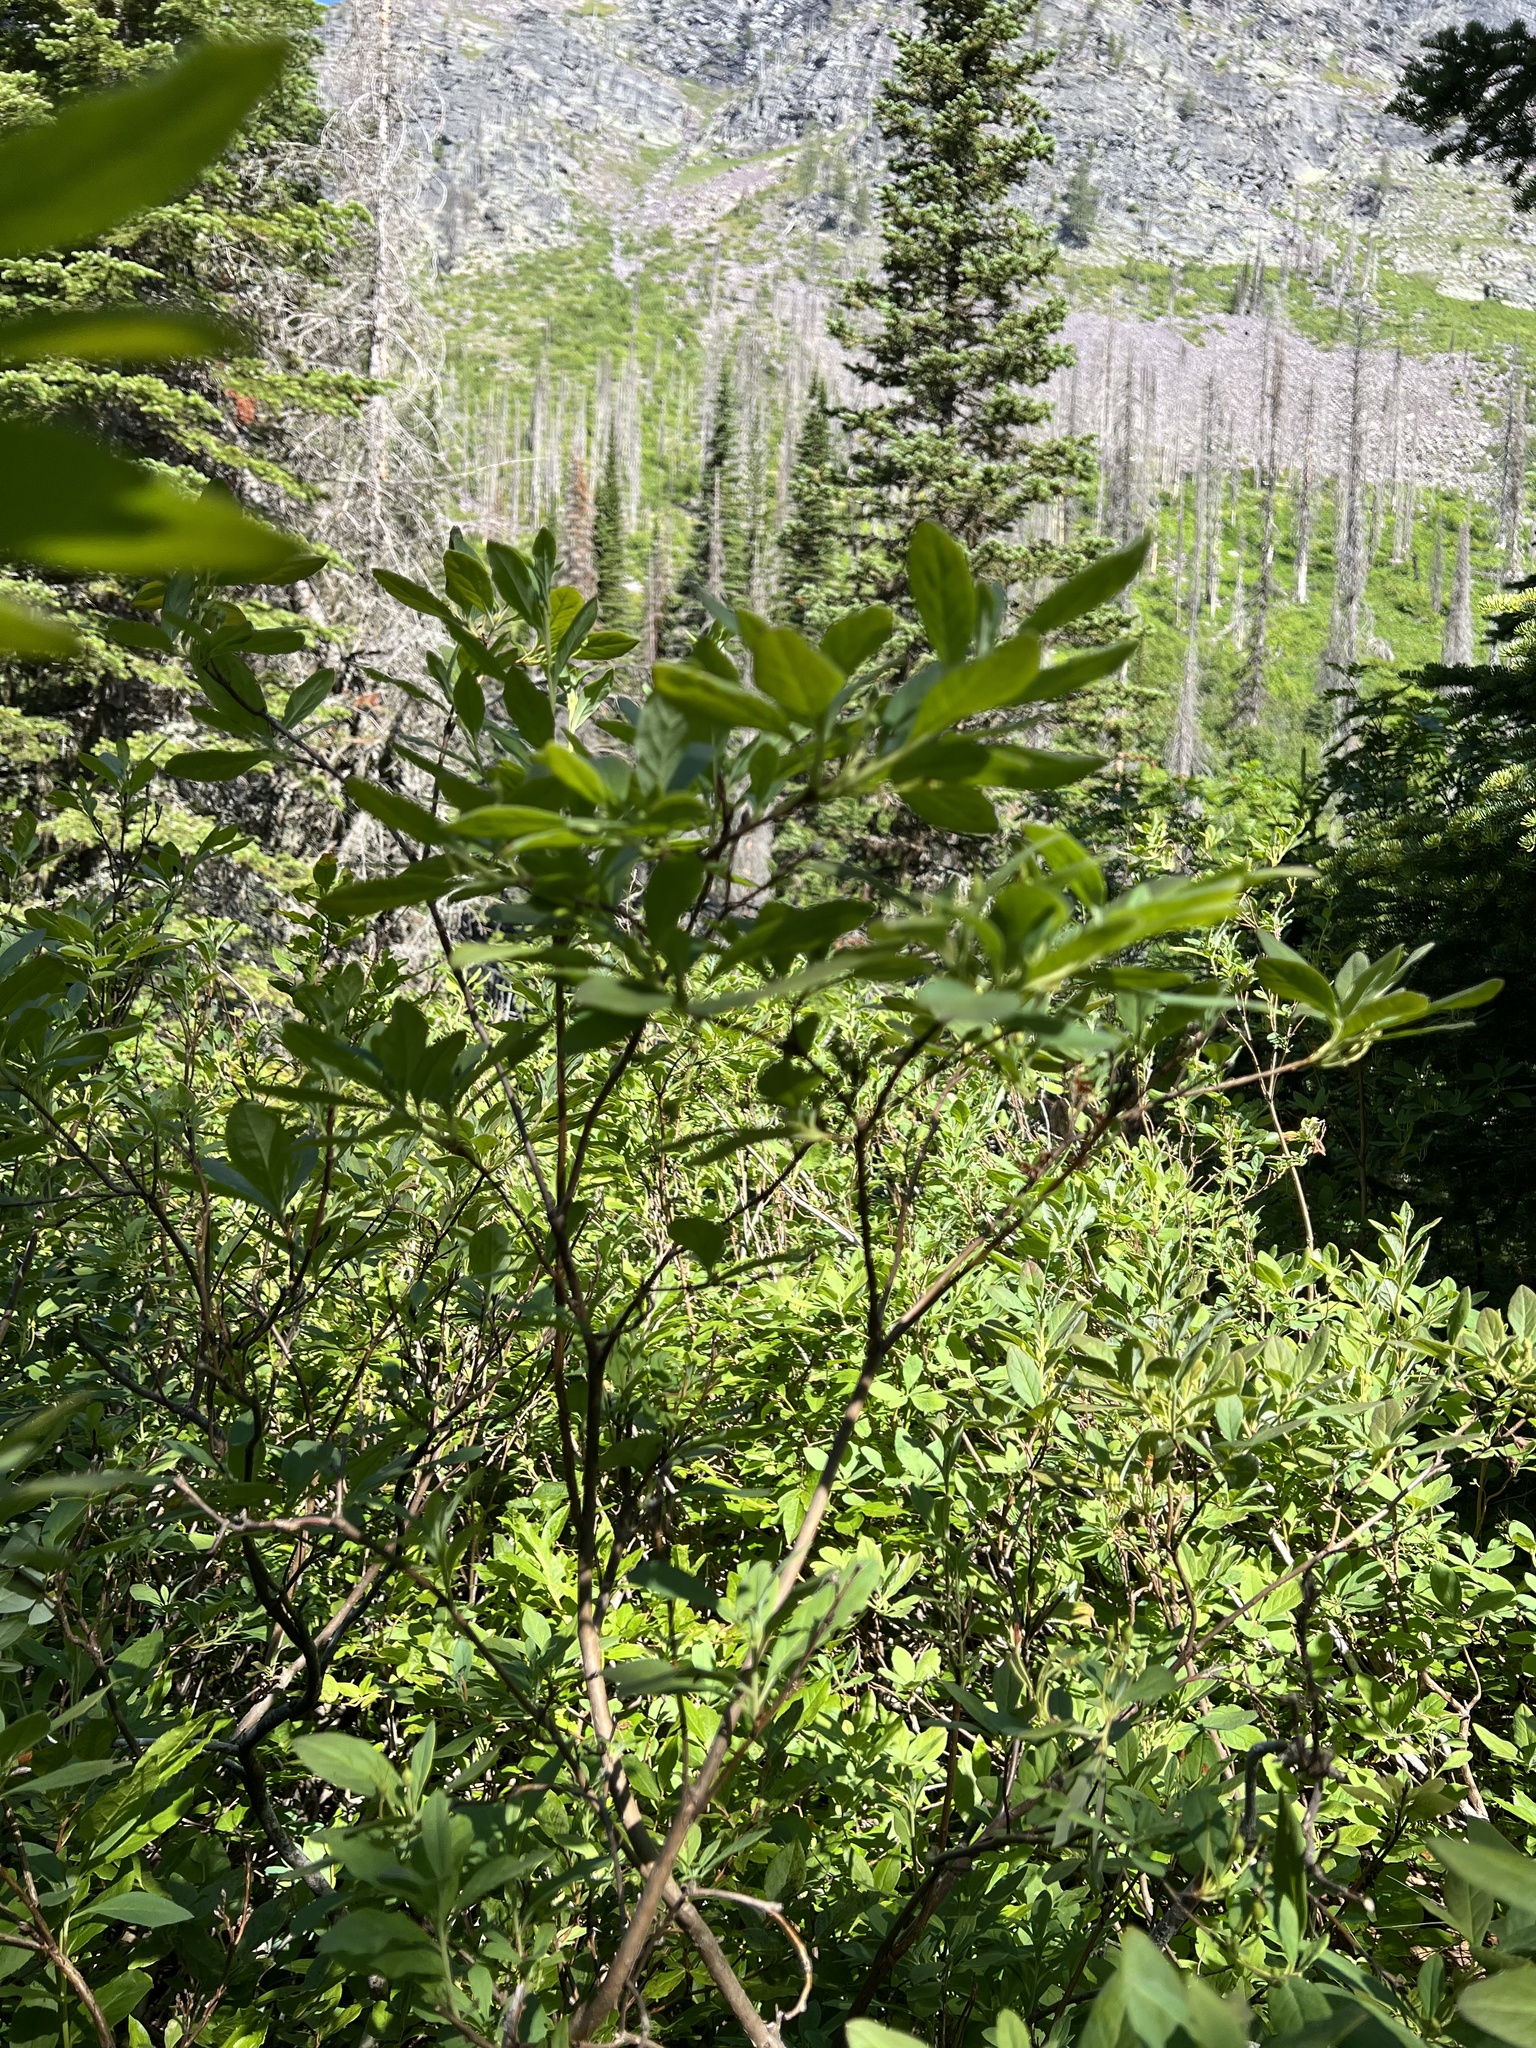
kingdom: Plantae
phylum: Tracheophyta
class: Magnoliopsida
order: Ericales
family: Ericaceae
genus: Rhododendron
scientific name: Rhododendron menziesii
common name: Pacific menziesia
